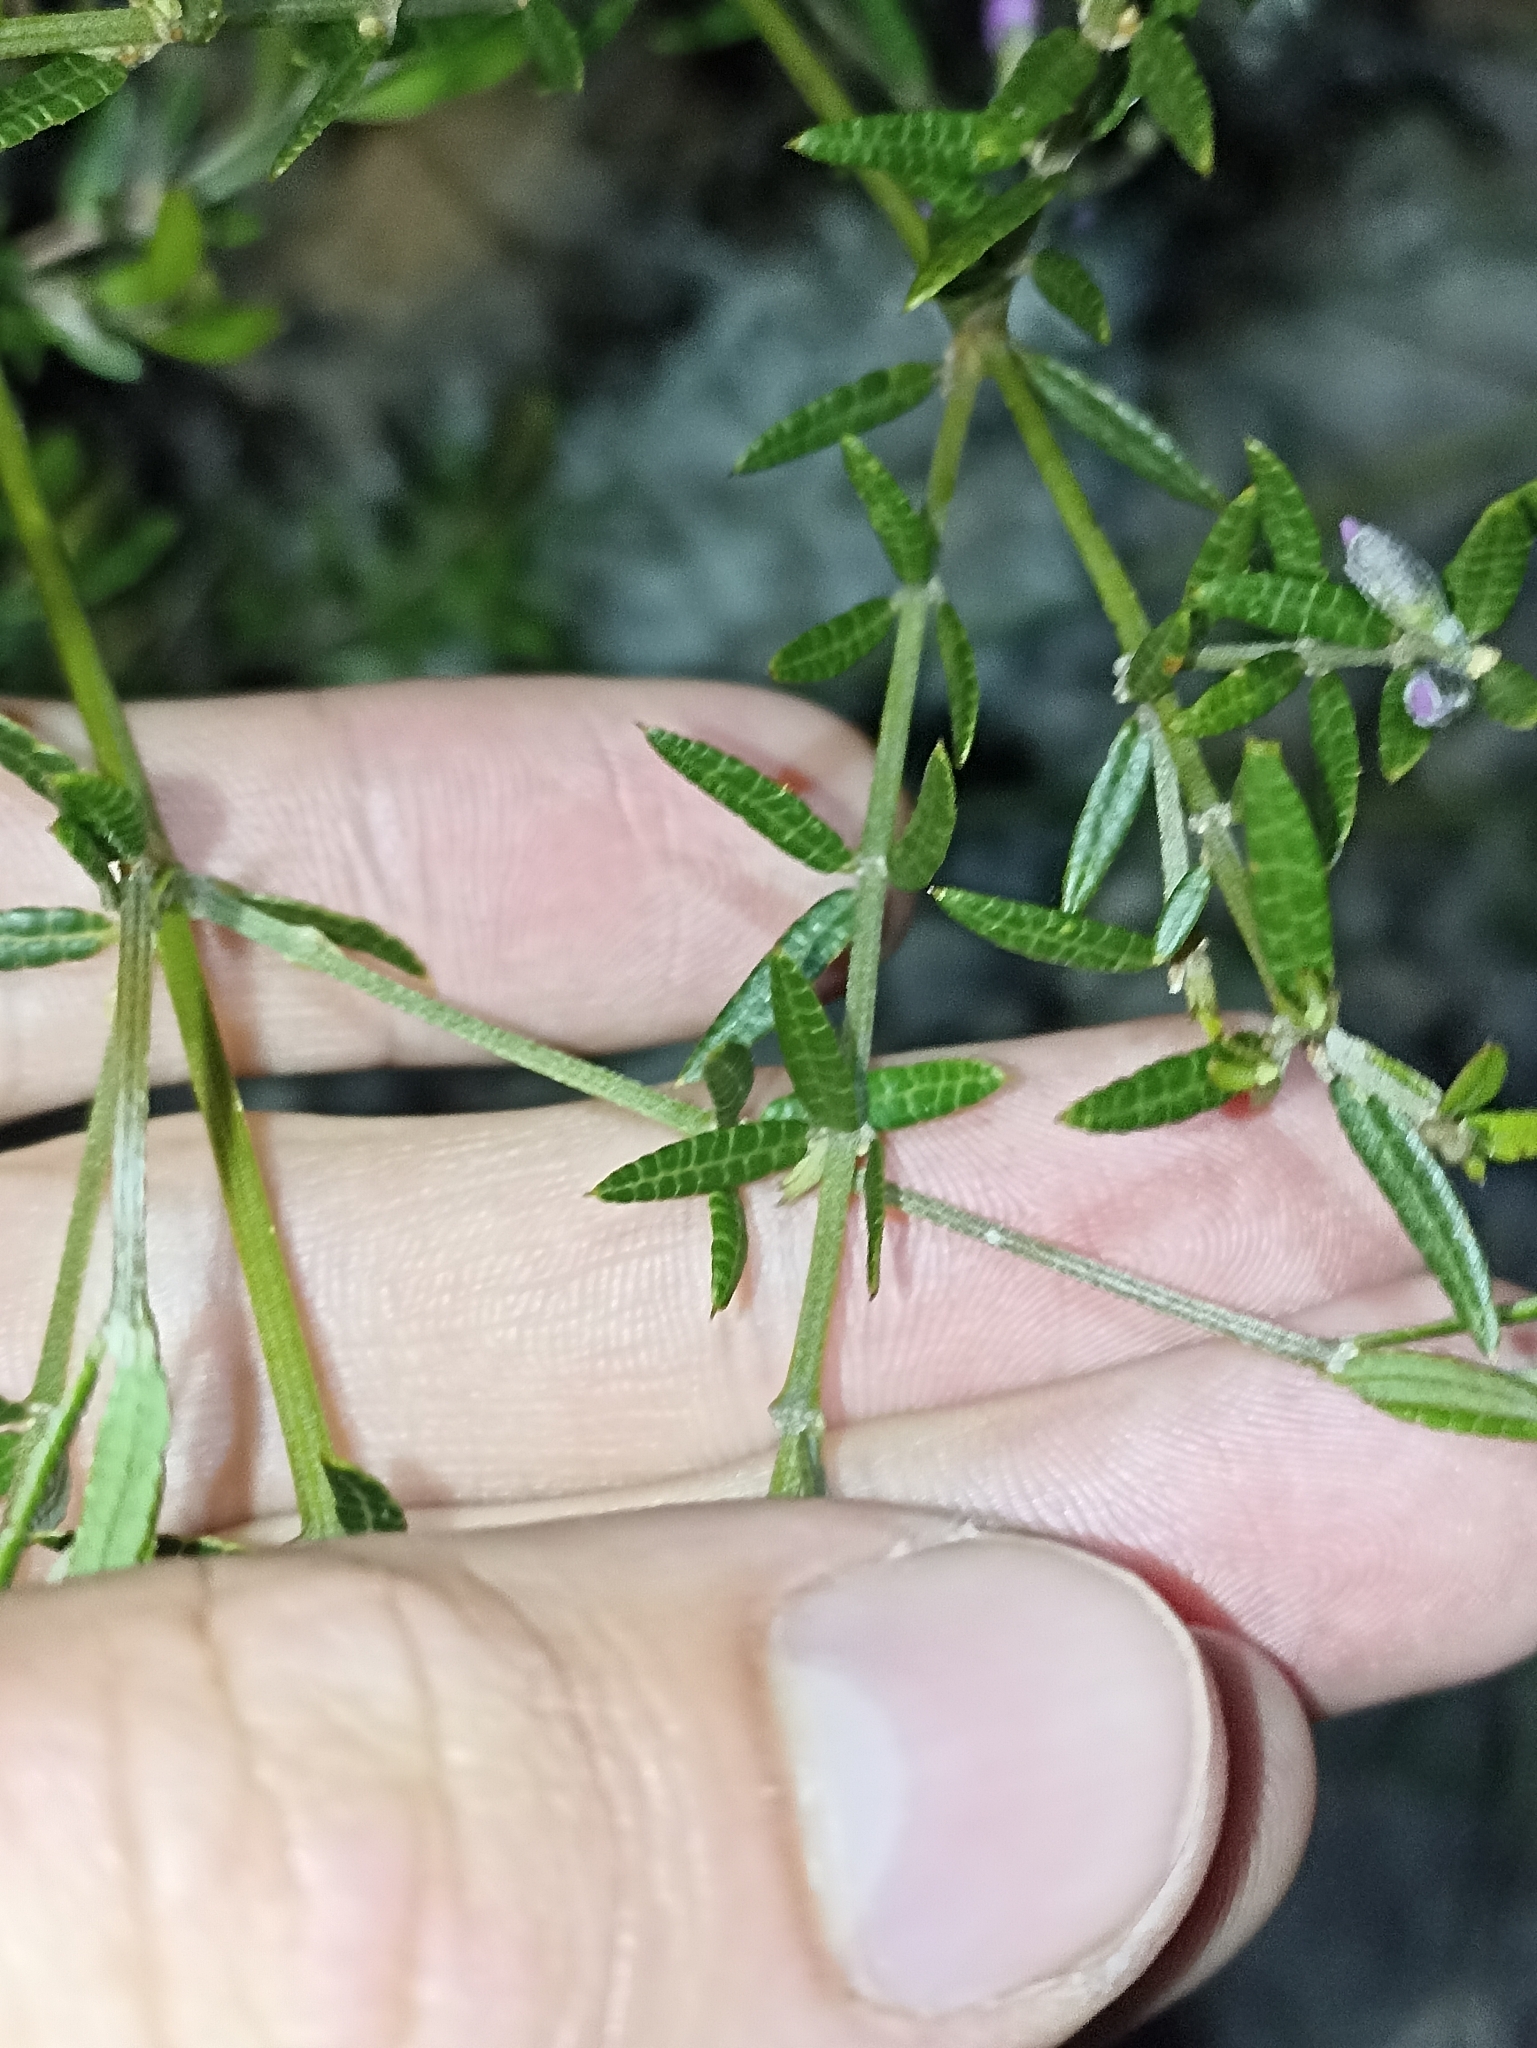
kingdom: Plantae
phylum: Tracheophyta
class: Magnoliopsida
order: Fabales
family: Fabaceae
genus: Mirbelia
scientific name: Mirbelia rubiifolia
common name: Heathy mirbelia
